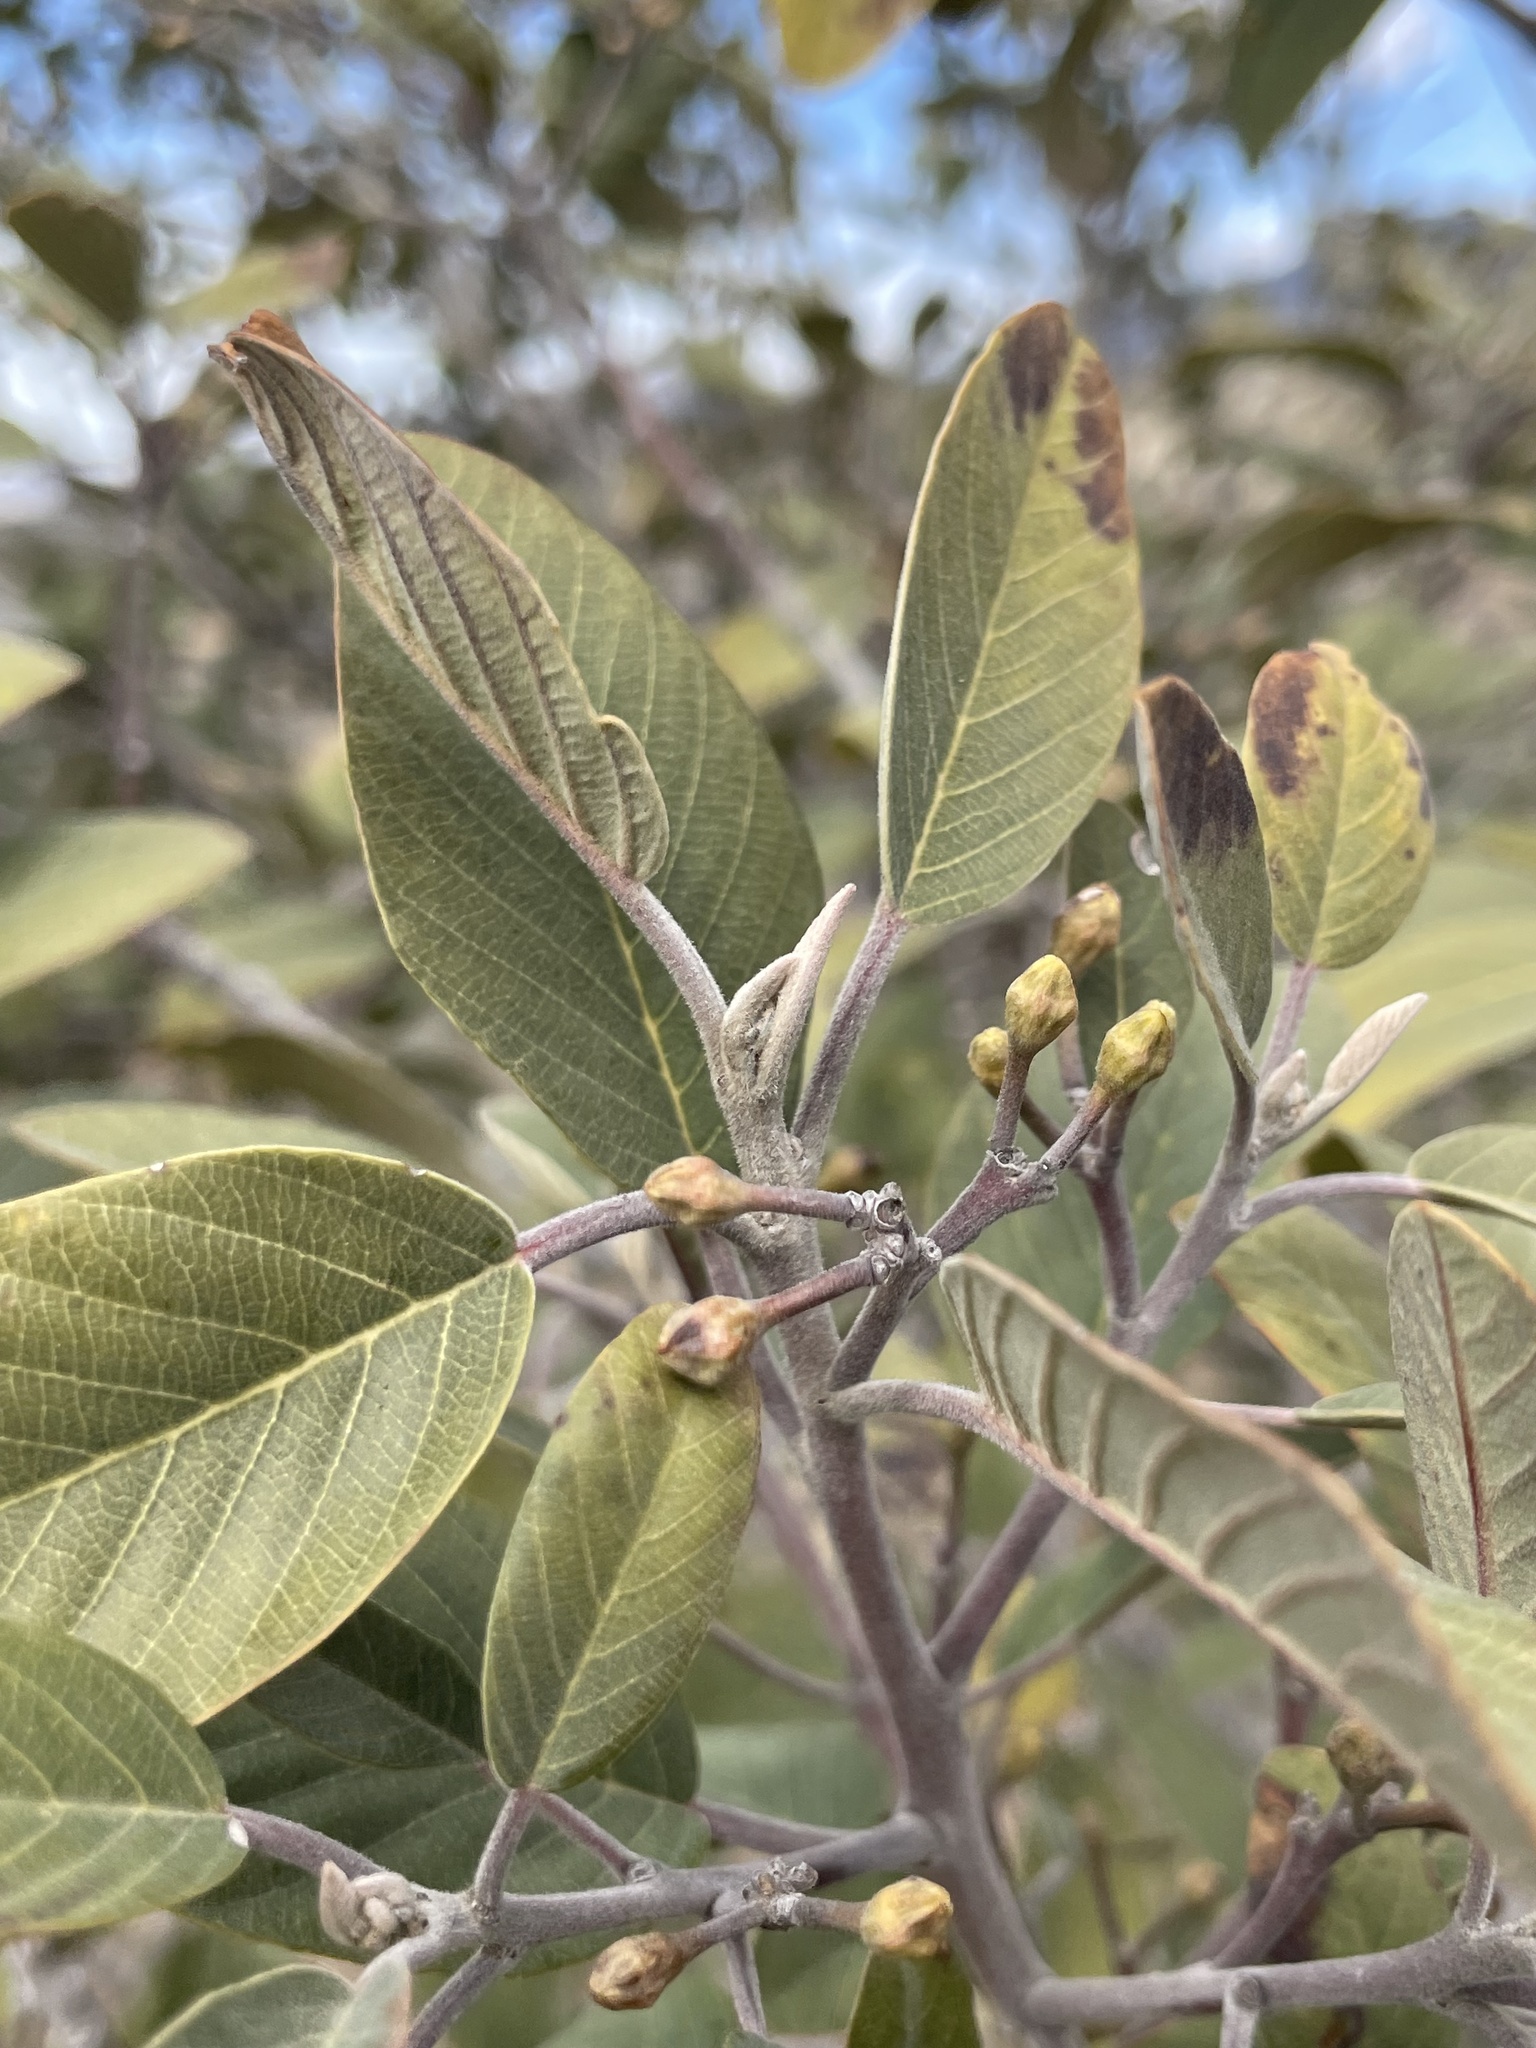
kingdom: Plantae
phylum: Tracheophyta
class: Magnoliopsida
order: Rosales
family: Rhamnaceae
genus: Frangula
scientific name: Frangula californica
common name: California buckthorn
